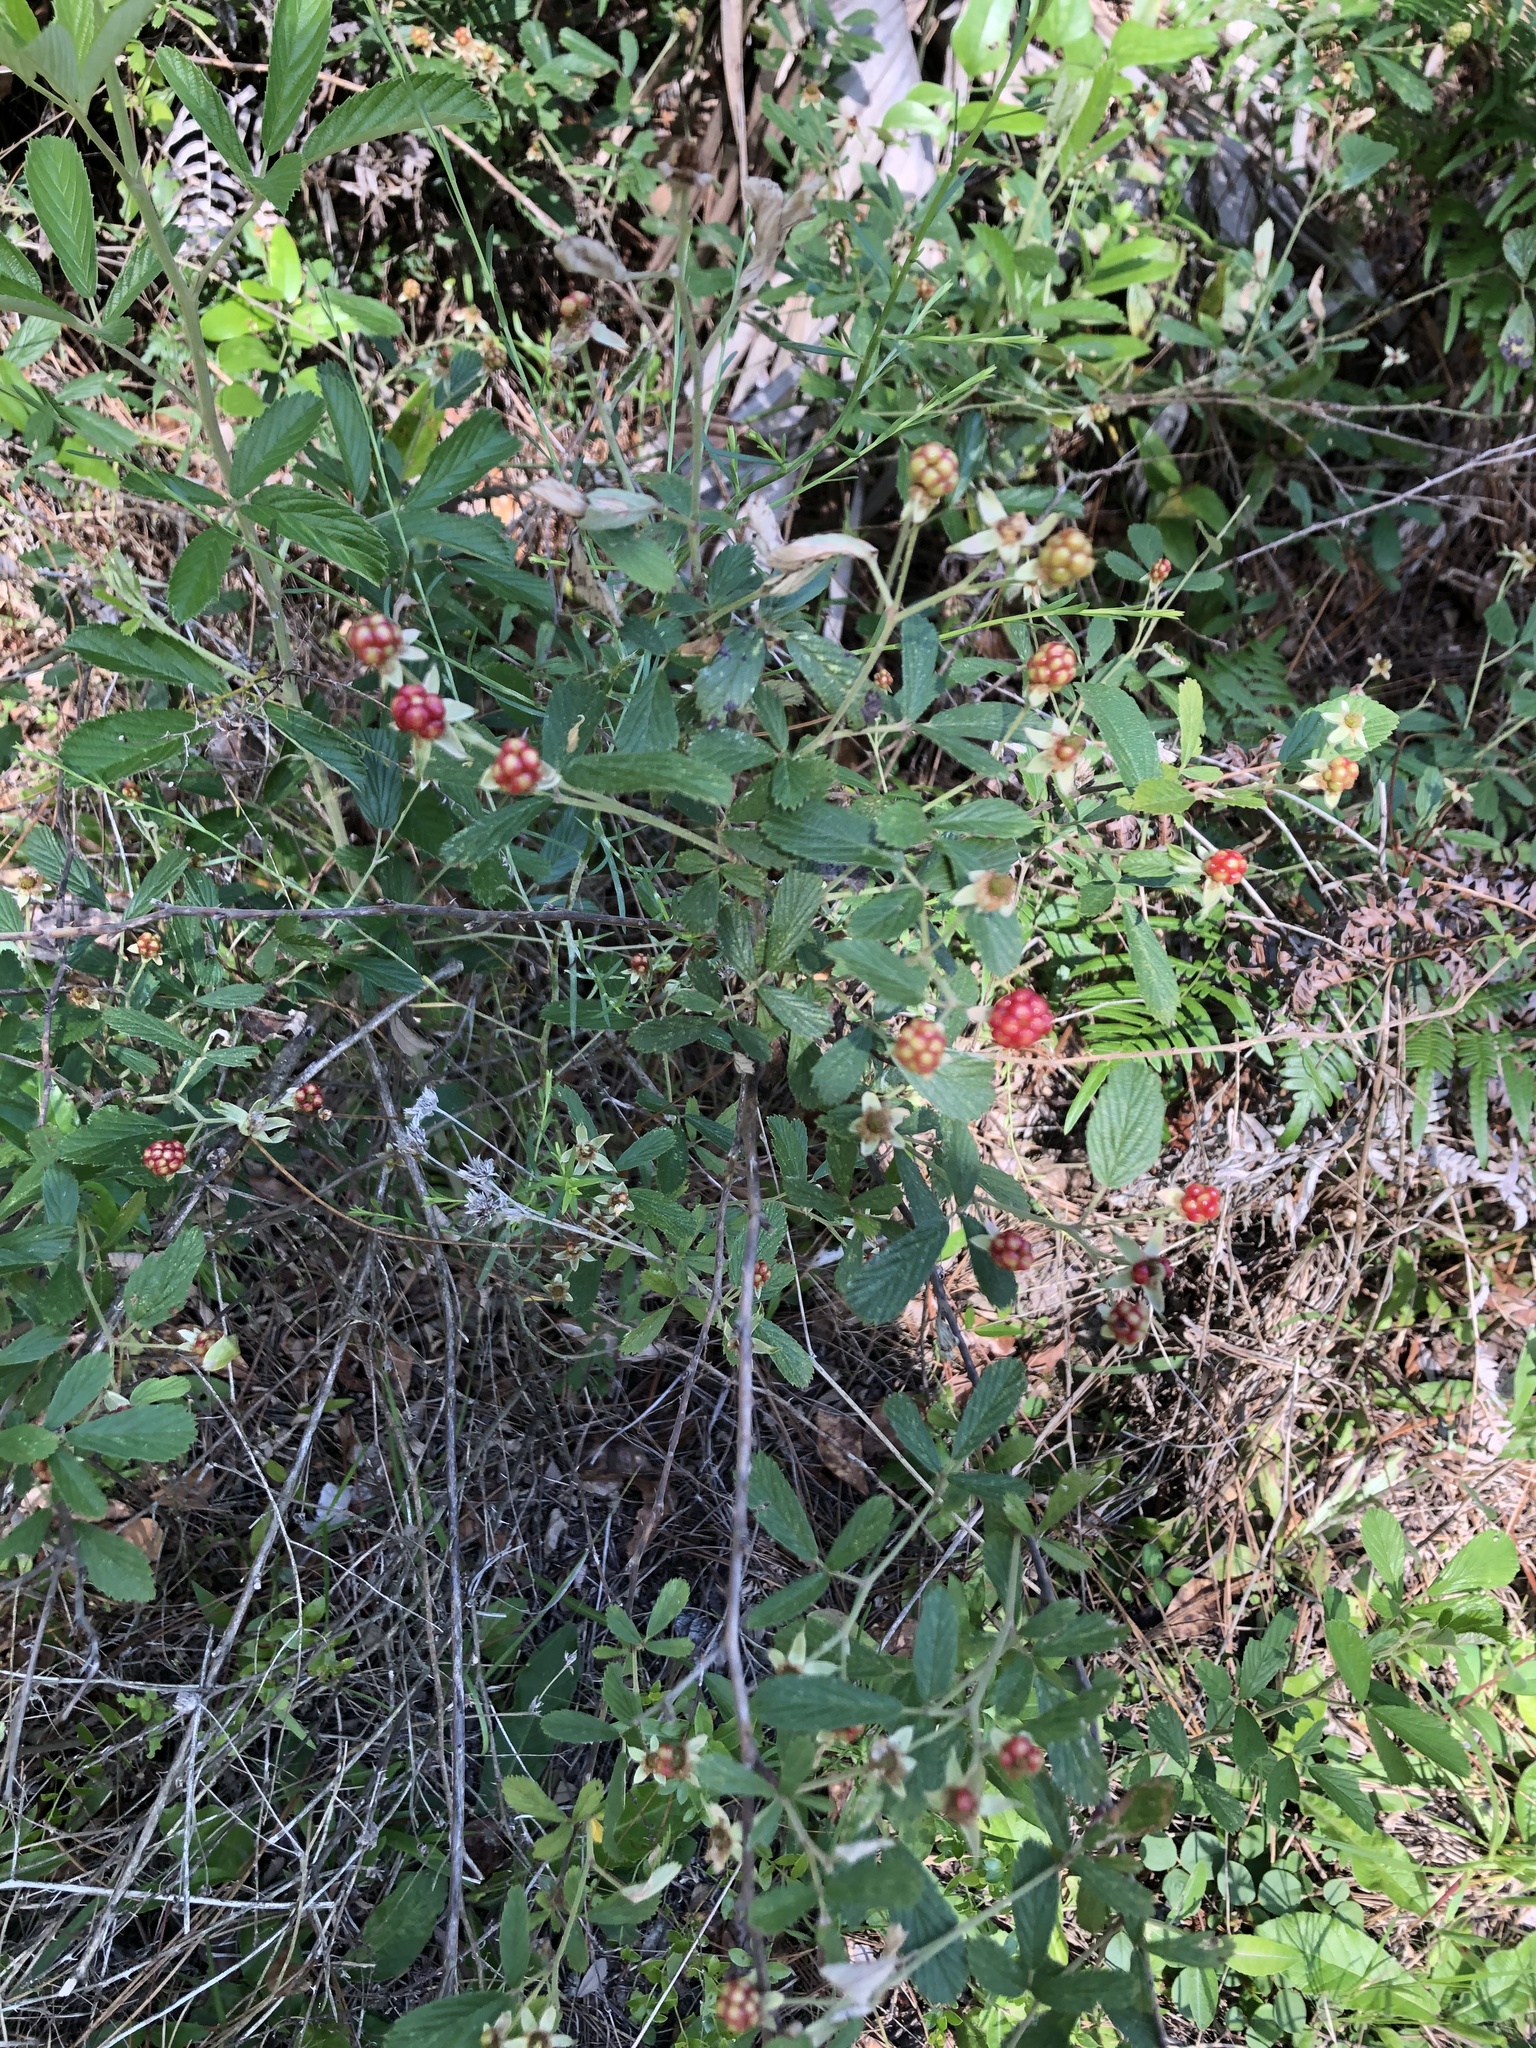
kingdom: Plantae
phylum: Tracheophyta
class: Magnoliopsida
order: Rosales
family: Rosaceae
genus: Rubus
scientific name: Rubus cuneifolius
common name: American bramble
